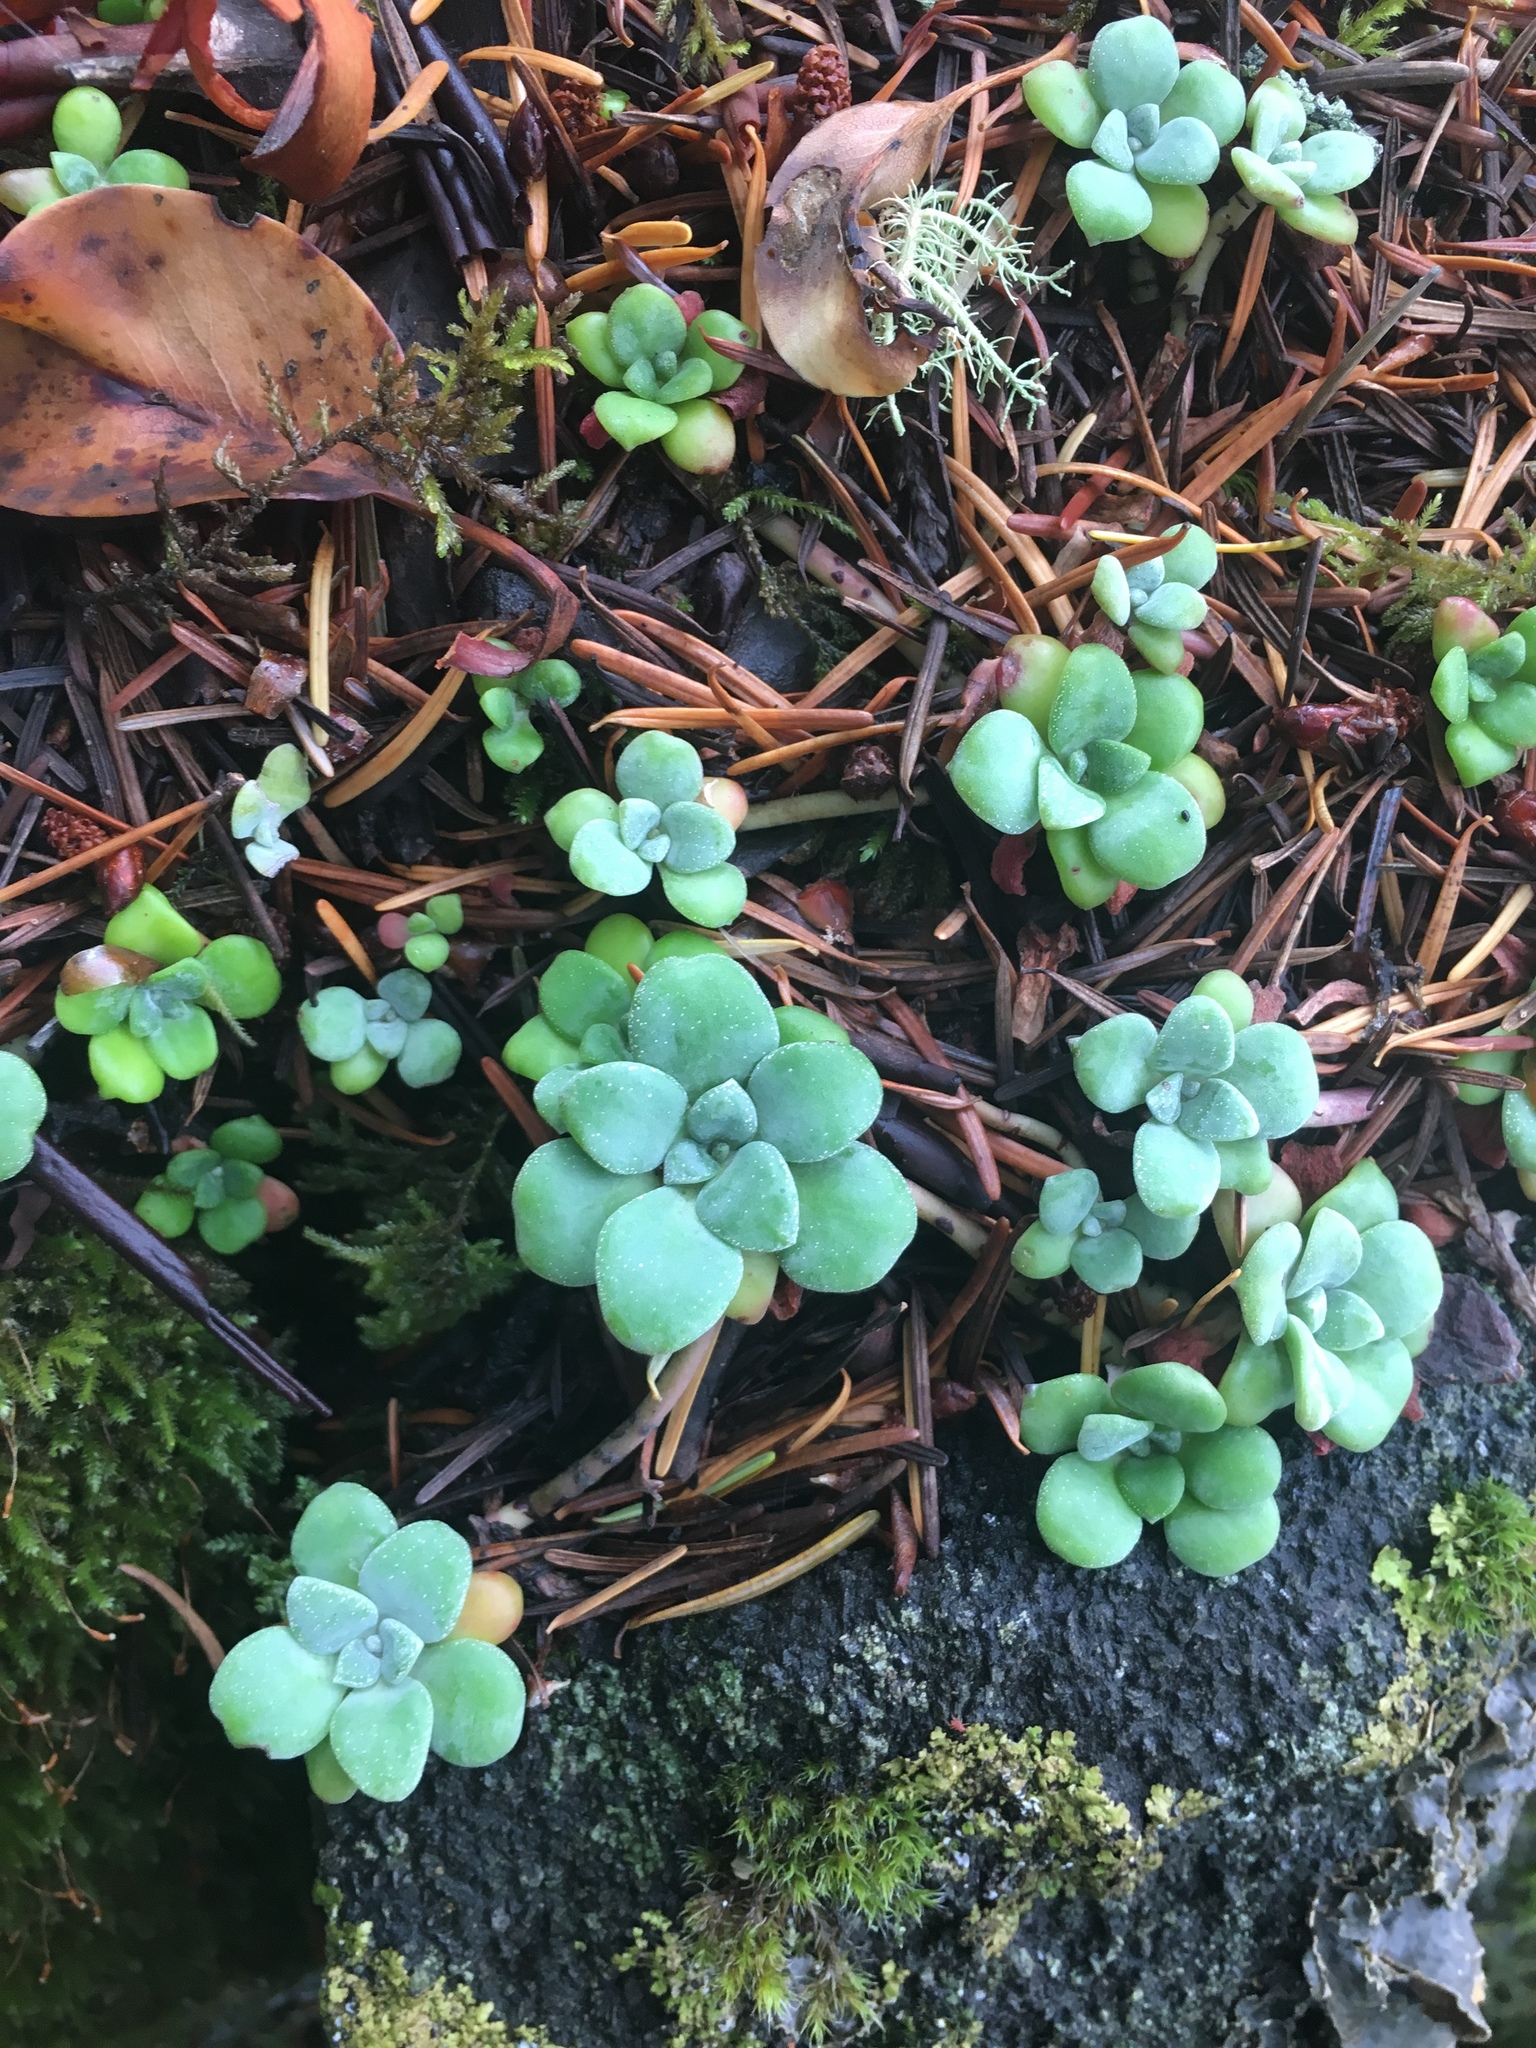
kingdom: Plantae
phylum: Tracheophyta
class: Magnoliopsida
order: Saxifragales
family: Crassulaceae
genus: Sedum
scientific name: Sedum spathulifolium
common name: Colorado stonecrop
